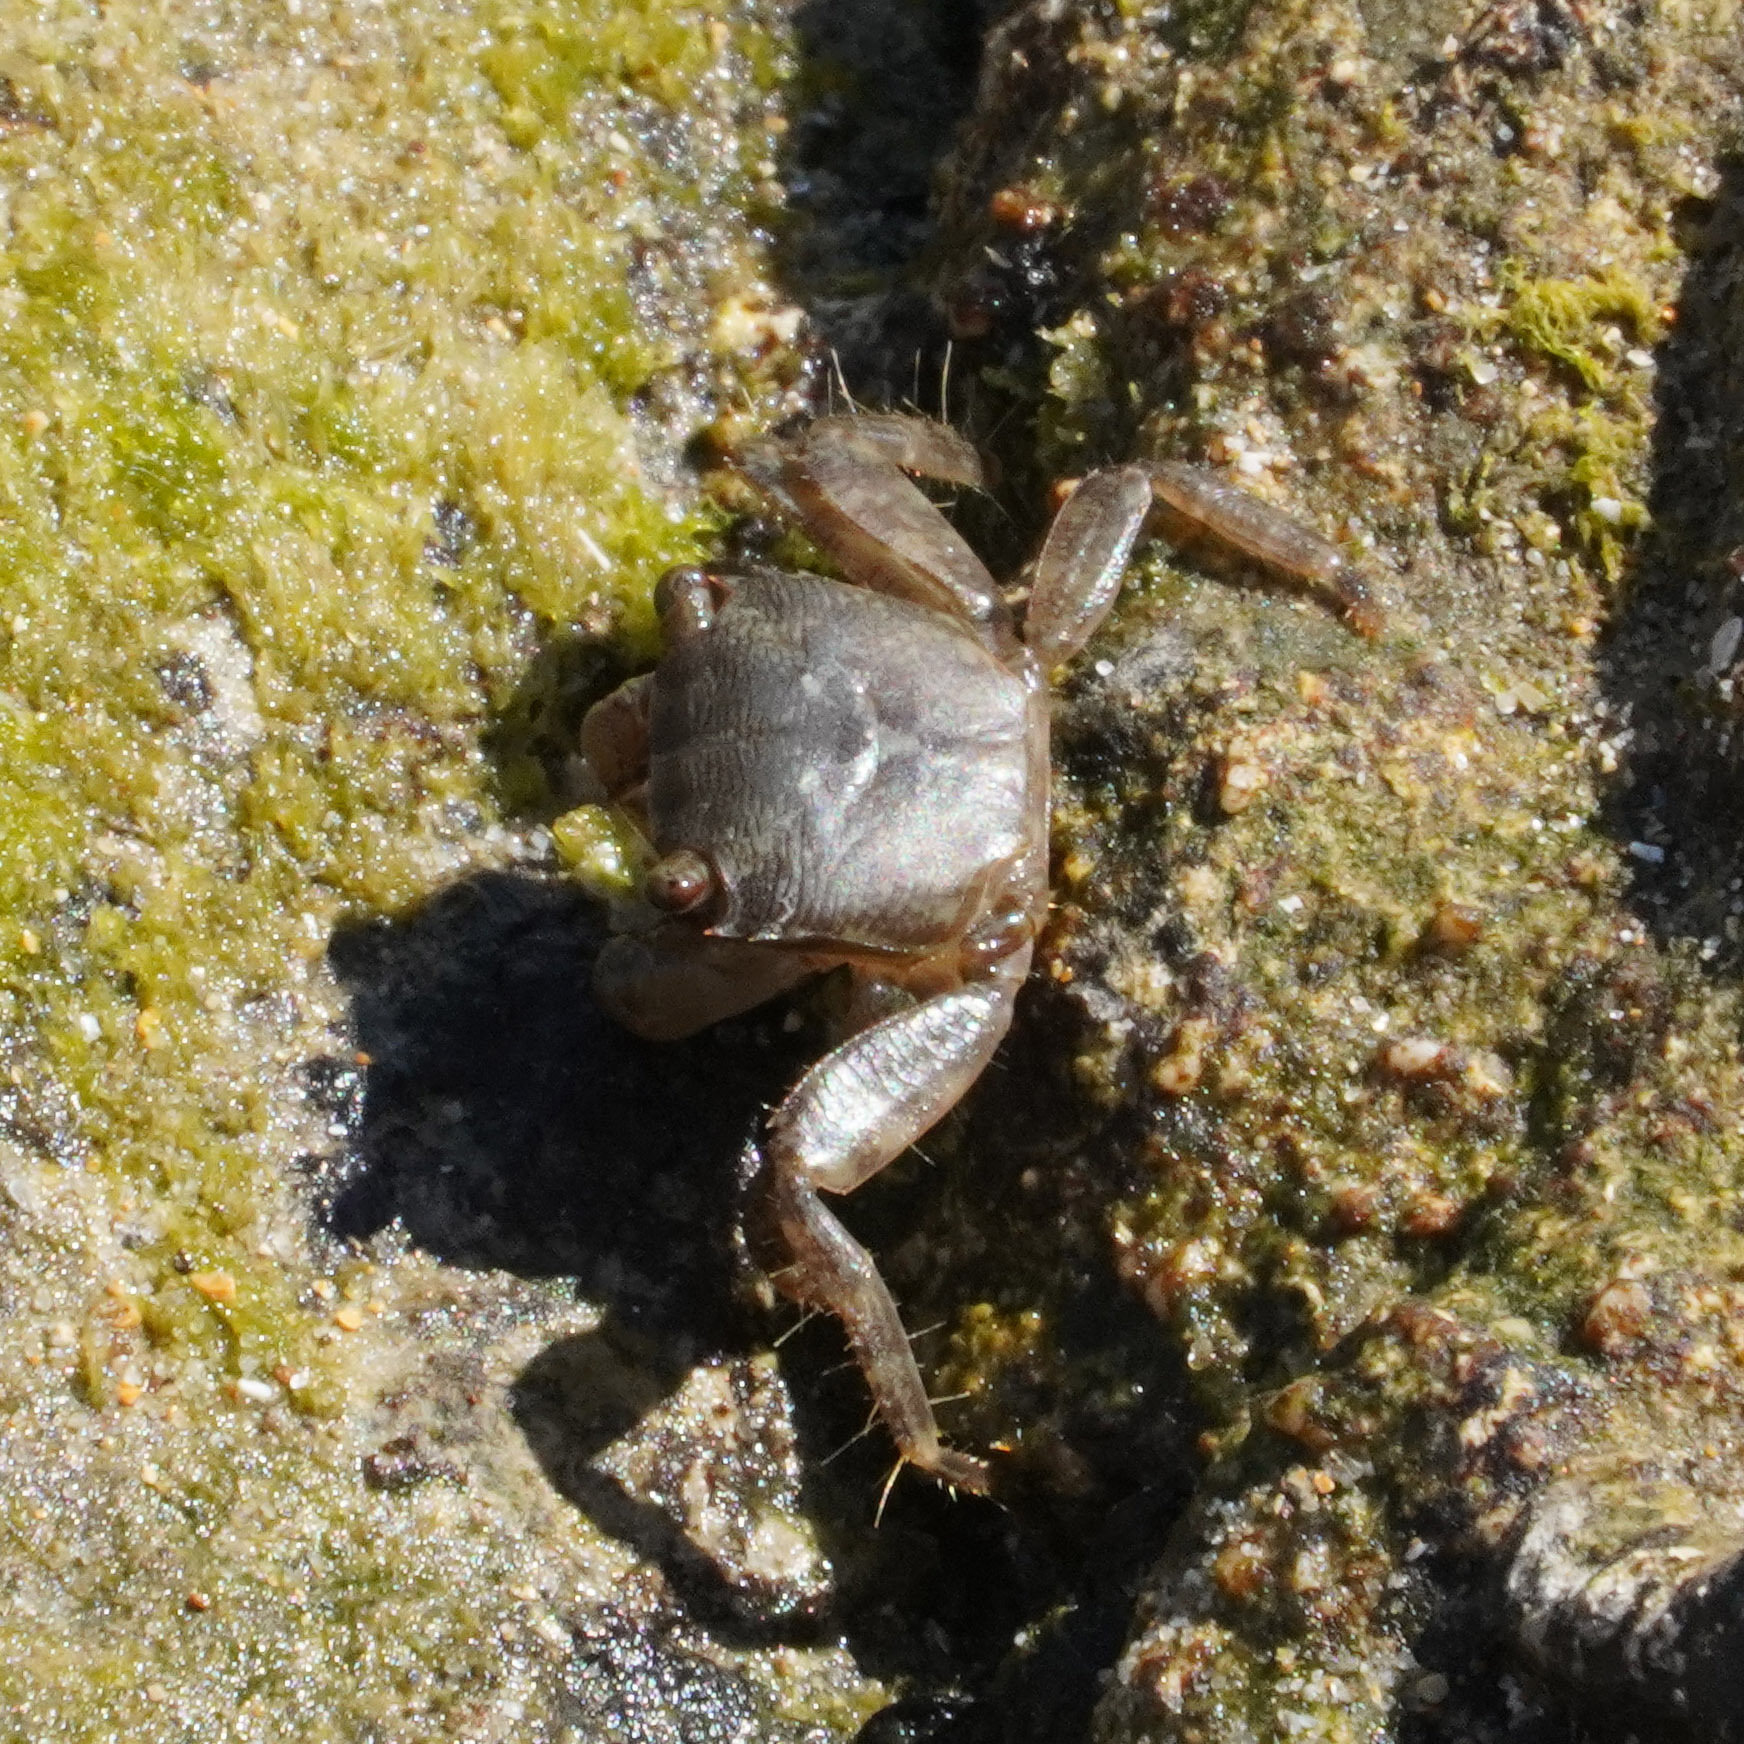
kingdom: Animalia
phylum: Arthropoda
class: Malacostraca
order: Decapoda
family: Grapsidae
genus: Pachygrapsus
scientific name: Pachygrapsus marmoratus
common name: Marbled rock crab
